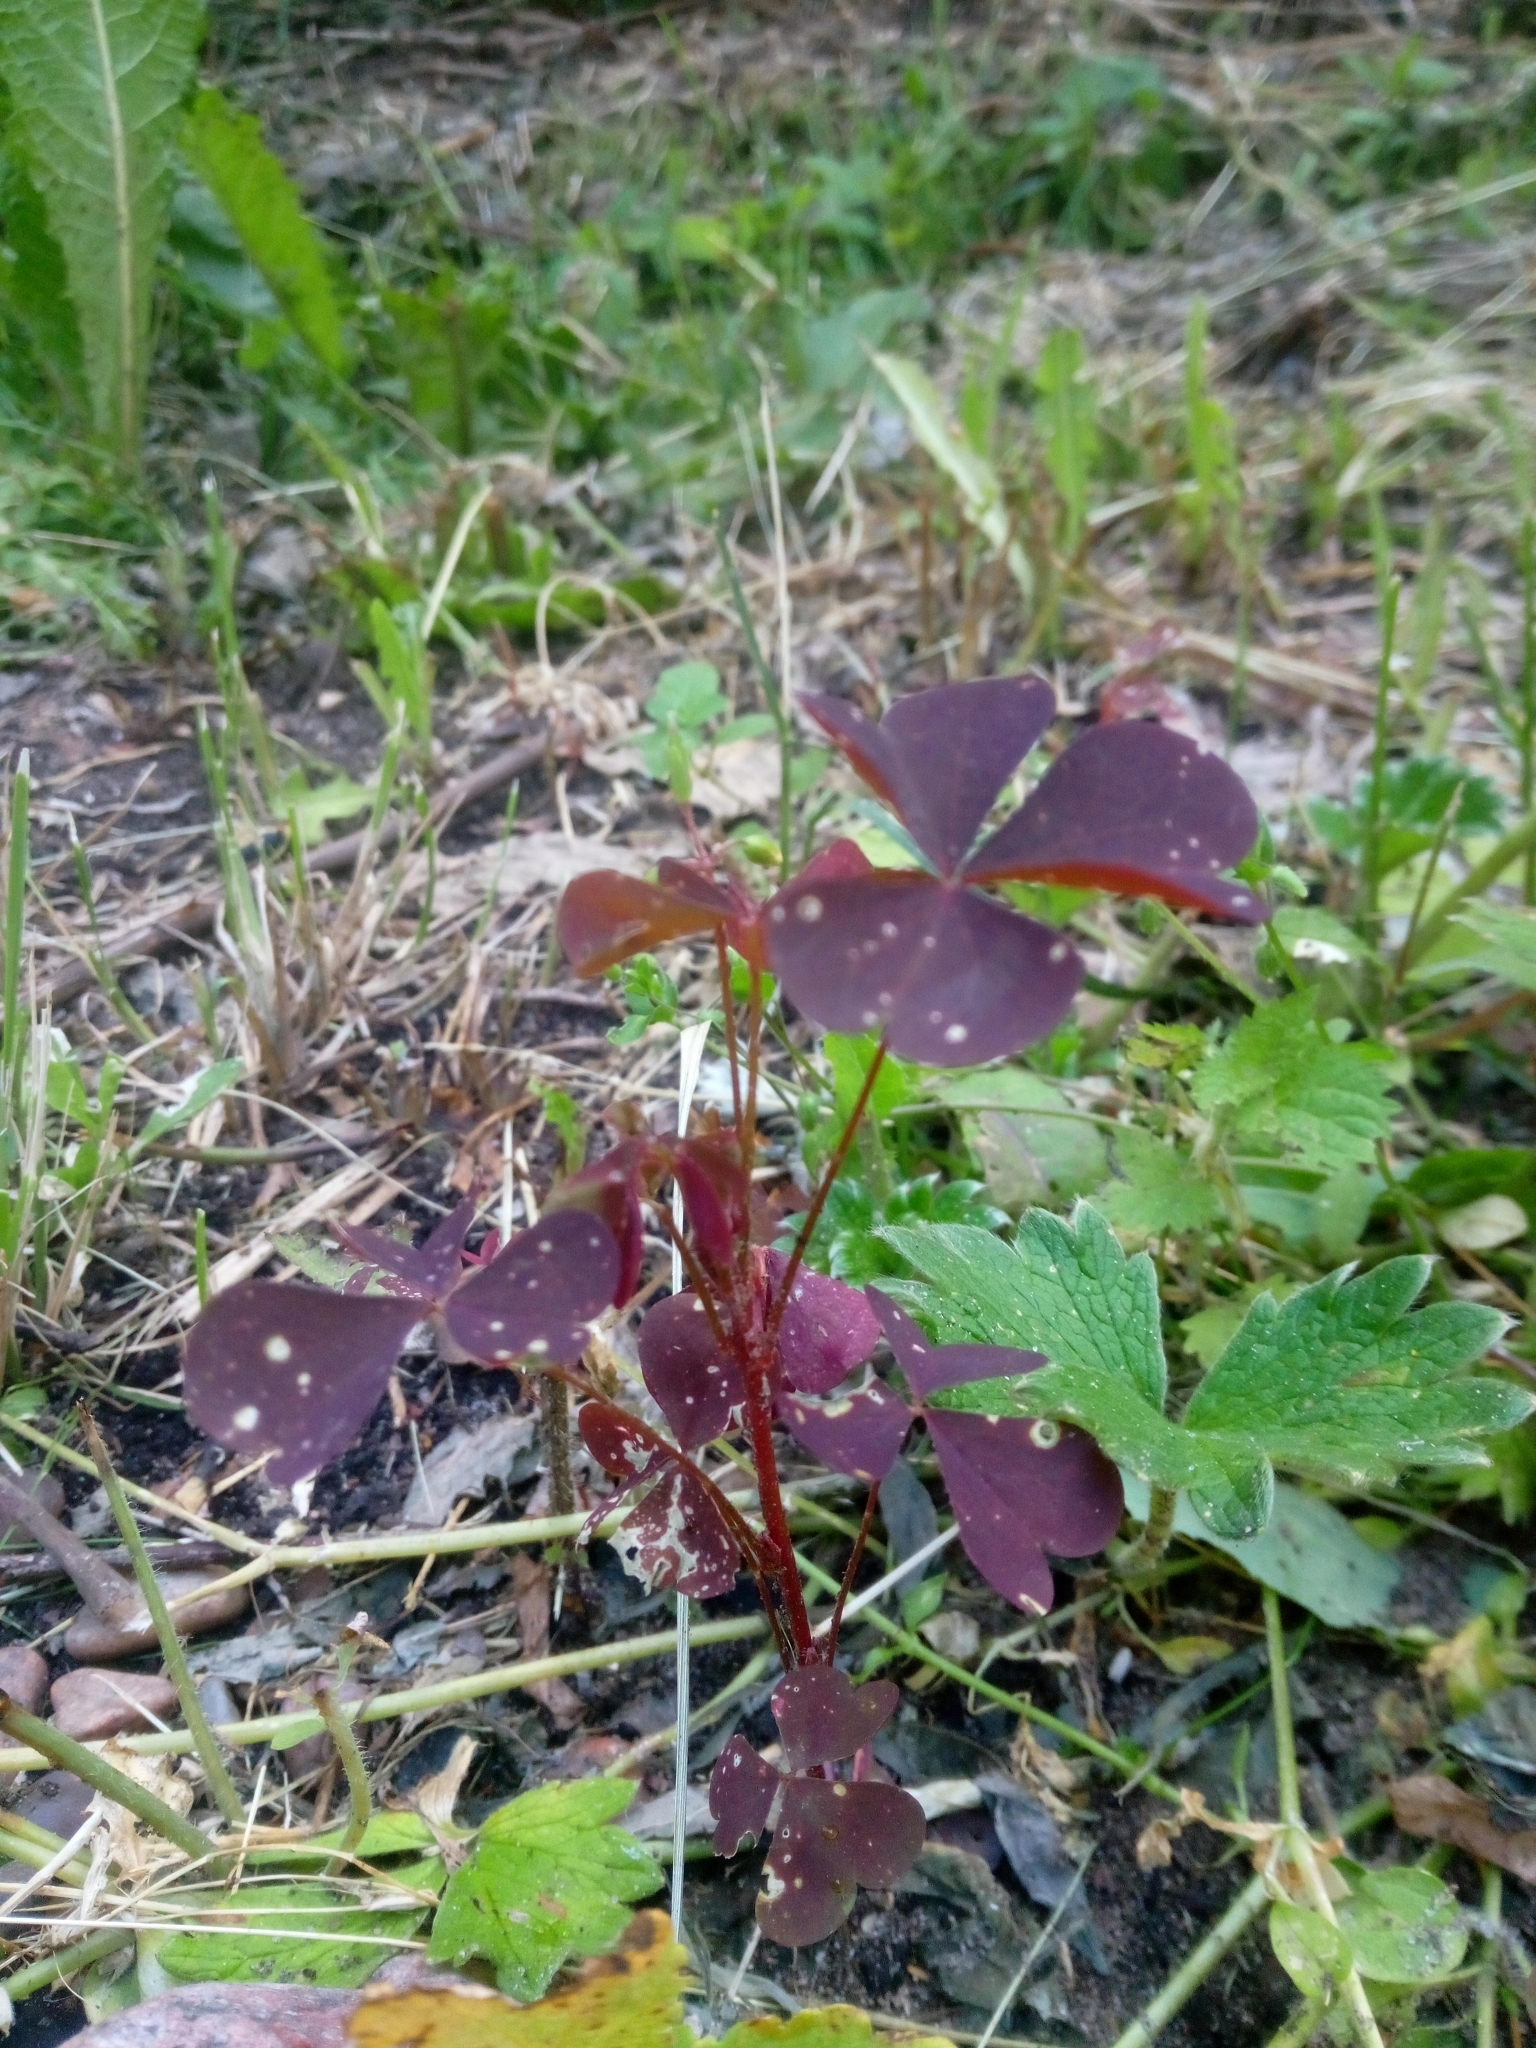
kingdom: Plantae
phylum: Tracheophyta
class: Magnoliopsida
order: Oxalidales
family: Oxalidaceae
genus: Oxalis
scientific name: Oxalis stricta
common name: Upright yellow-sorrel
